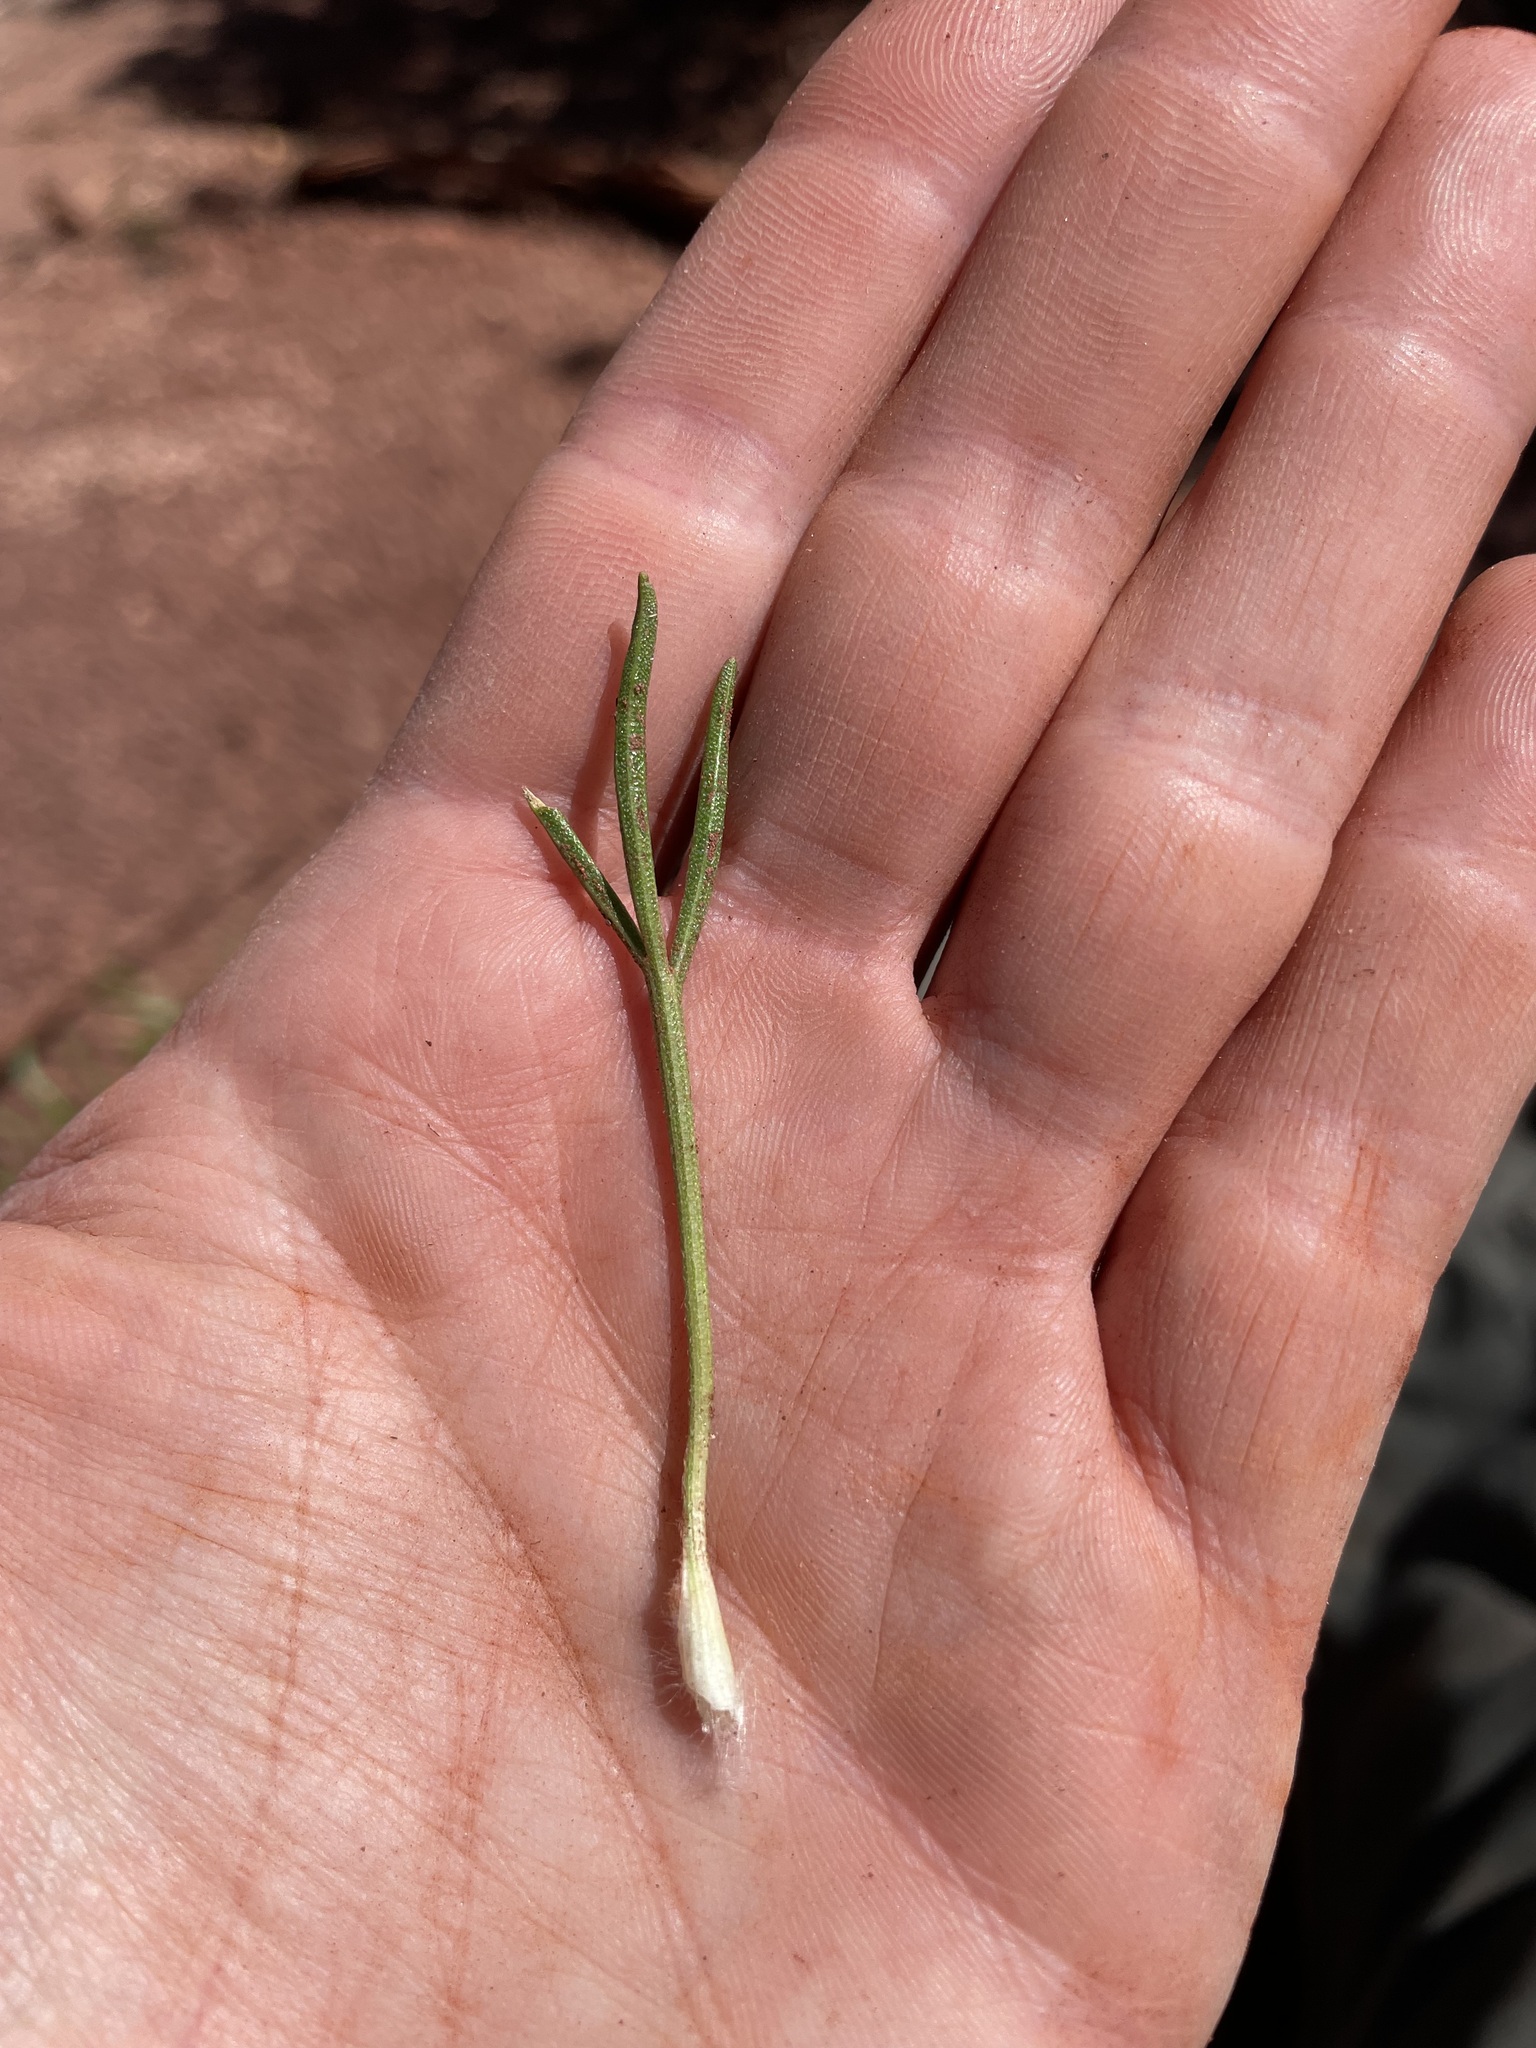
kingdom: Plantae
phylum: Tracheophyta
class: Magnoliopsida
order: Asterales
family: Asteraceae
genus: Hymenoxys
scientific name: Hymenoxys richardsonii
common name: Pingue rubberweed
